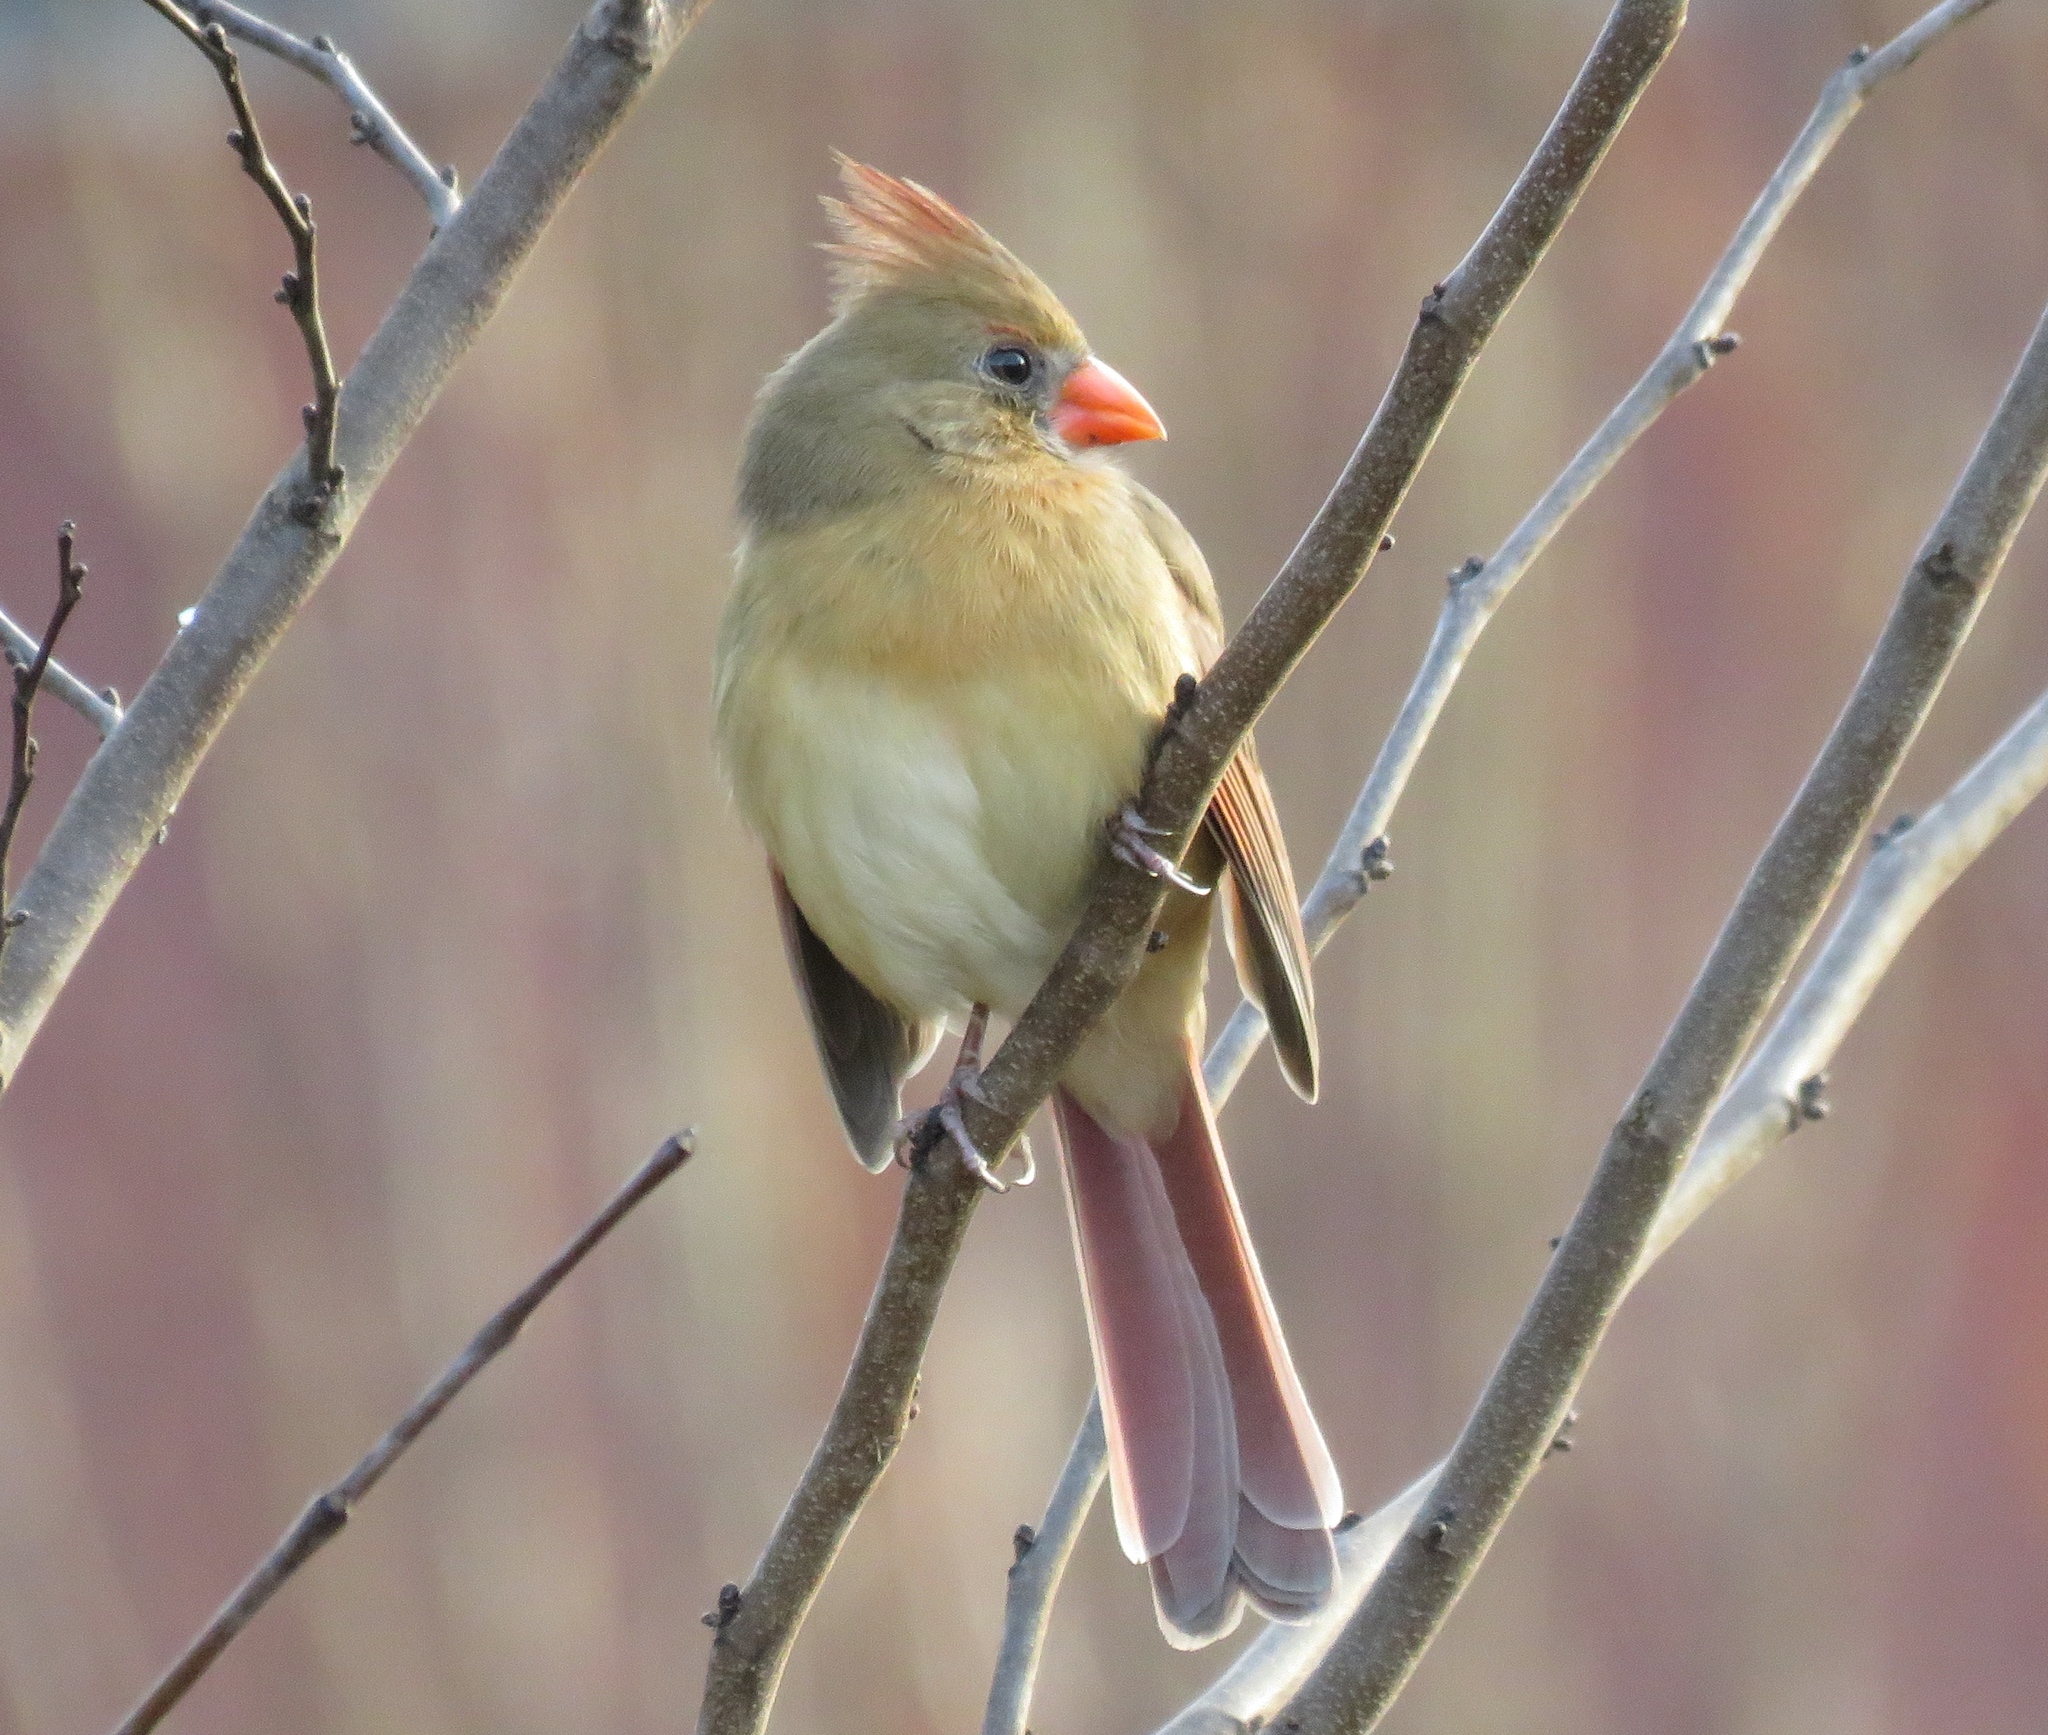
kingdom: Animalia
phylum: Chordata
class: Aves
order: Passeriformes
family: Cardinalidae
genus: Cardinalis
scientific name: Cardinalis cardinalis
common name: Northern cardinal
